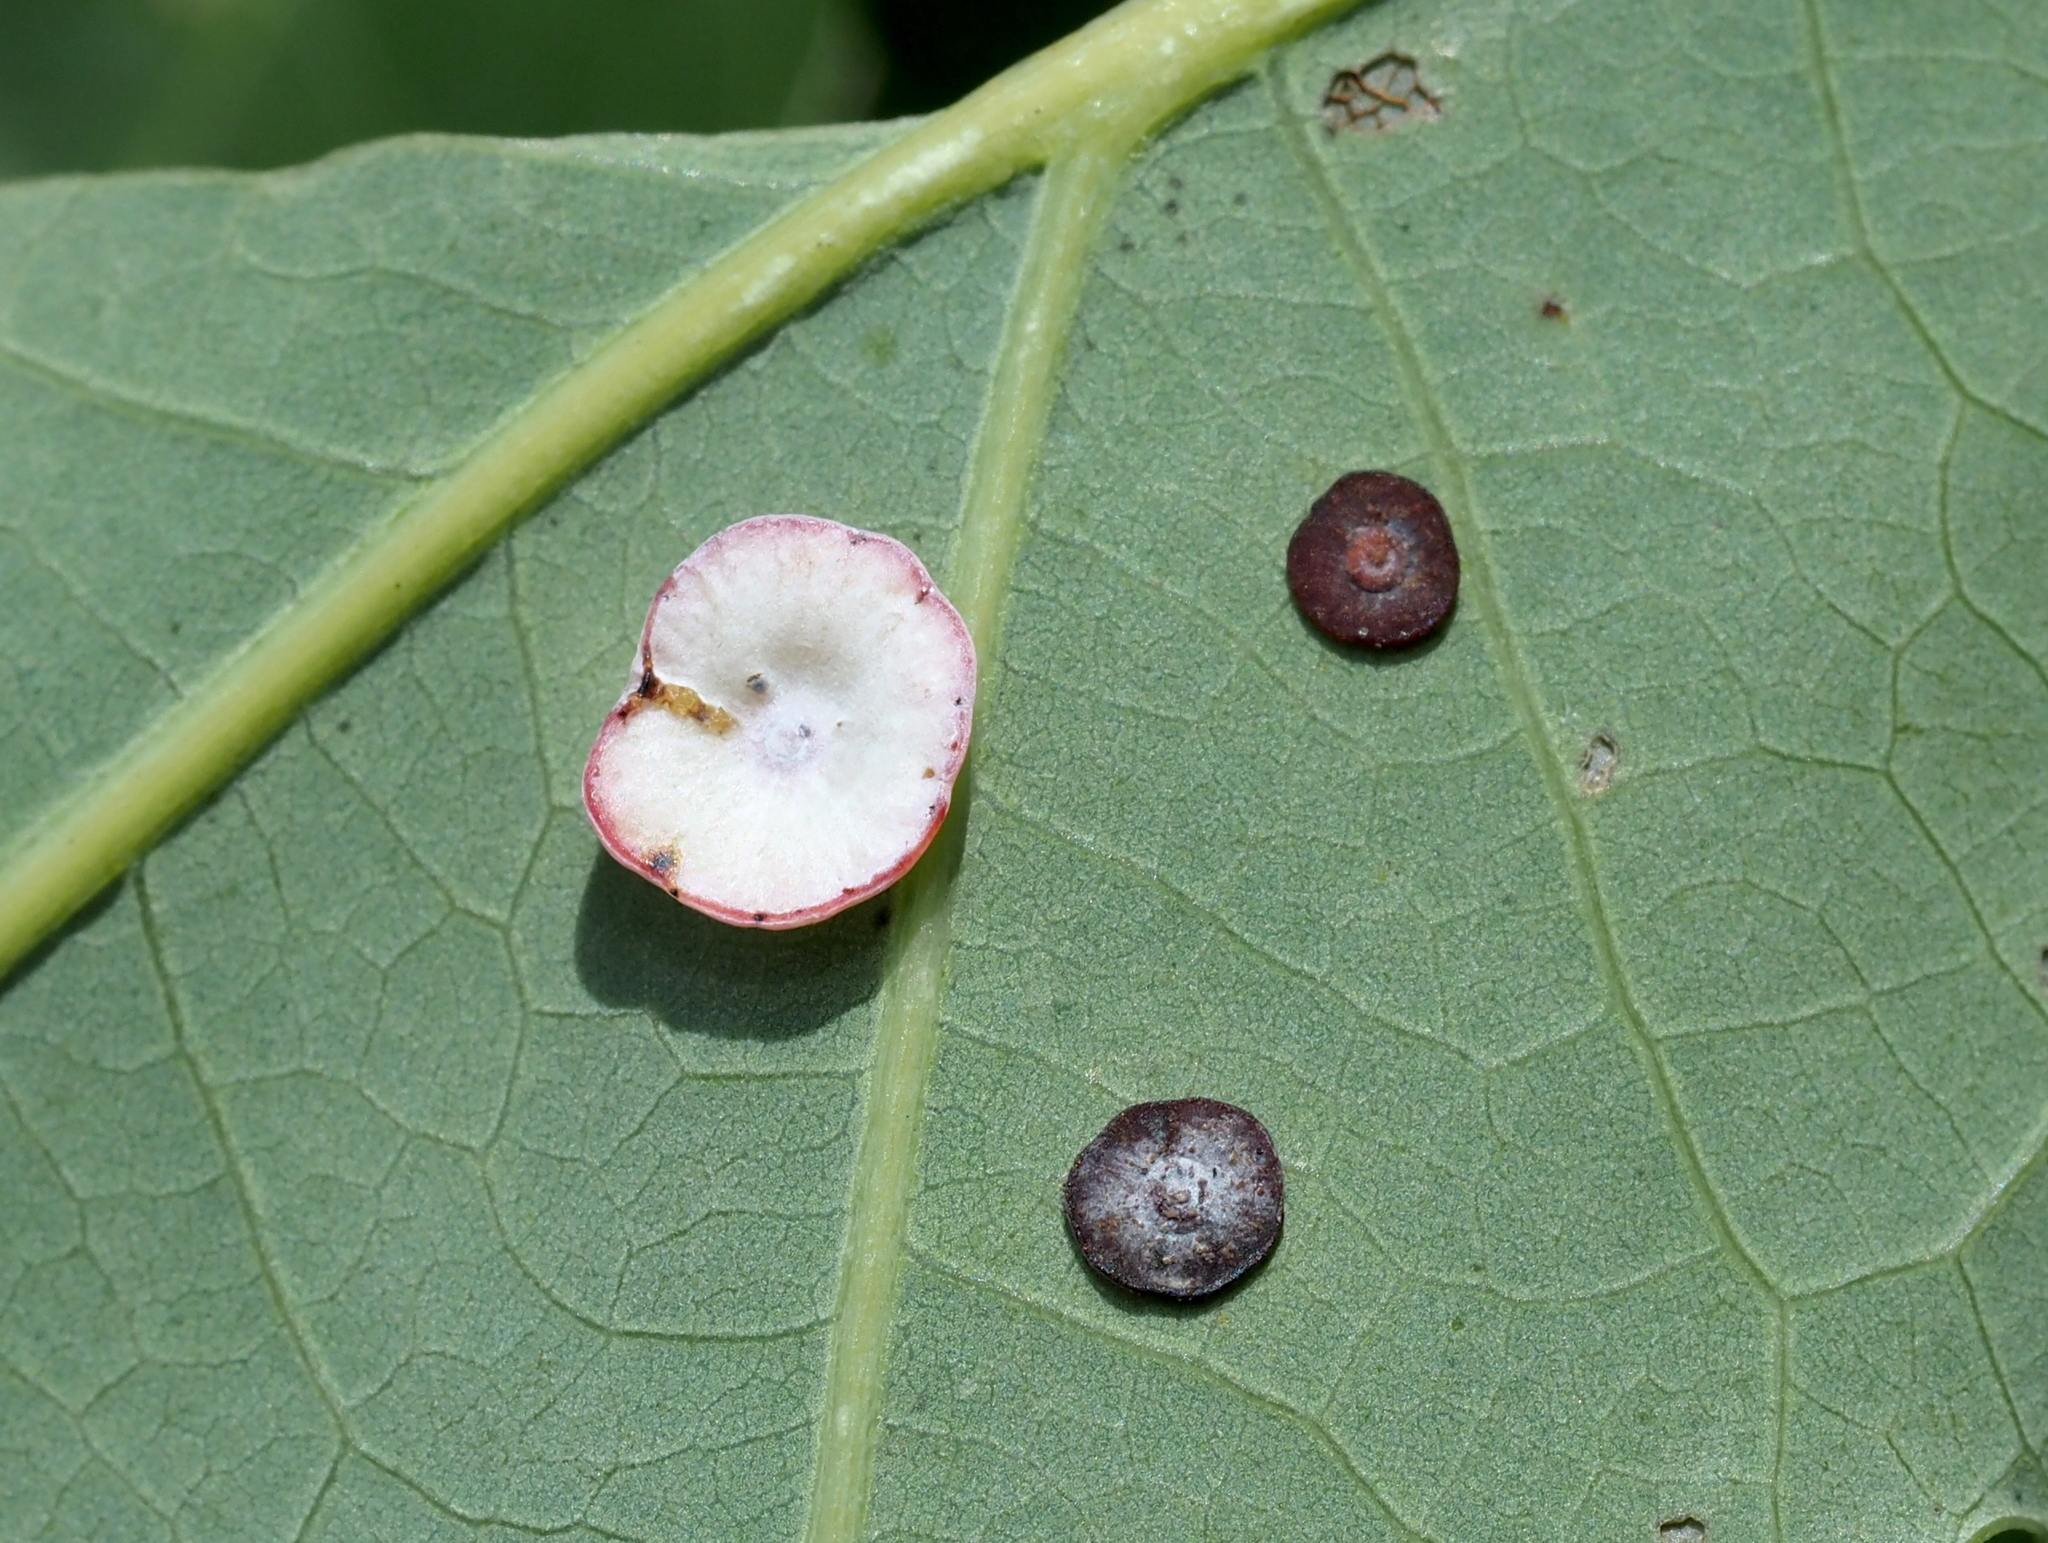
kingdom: Animalia
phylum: Arthropoda
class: Insecta
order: Hymenoptera
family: Cynipidae
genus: Phylloteras
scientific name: Phylloteras poculum
